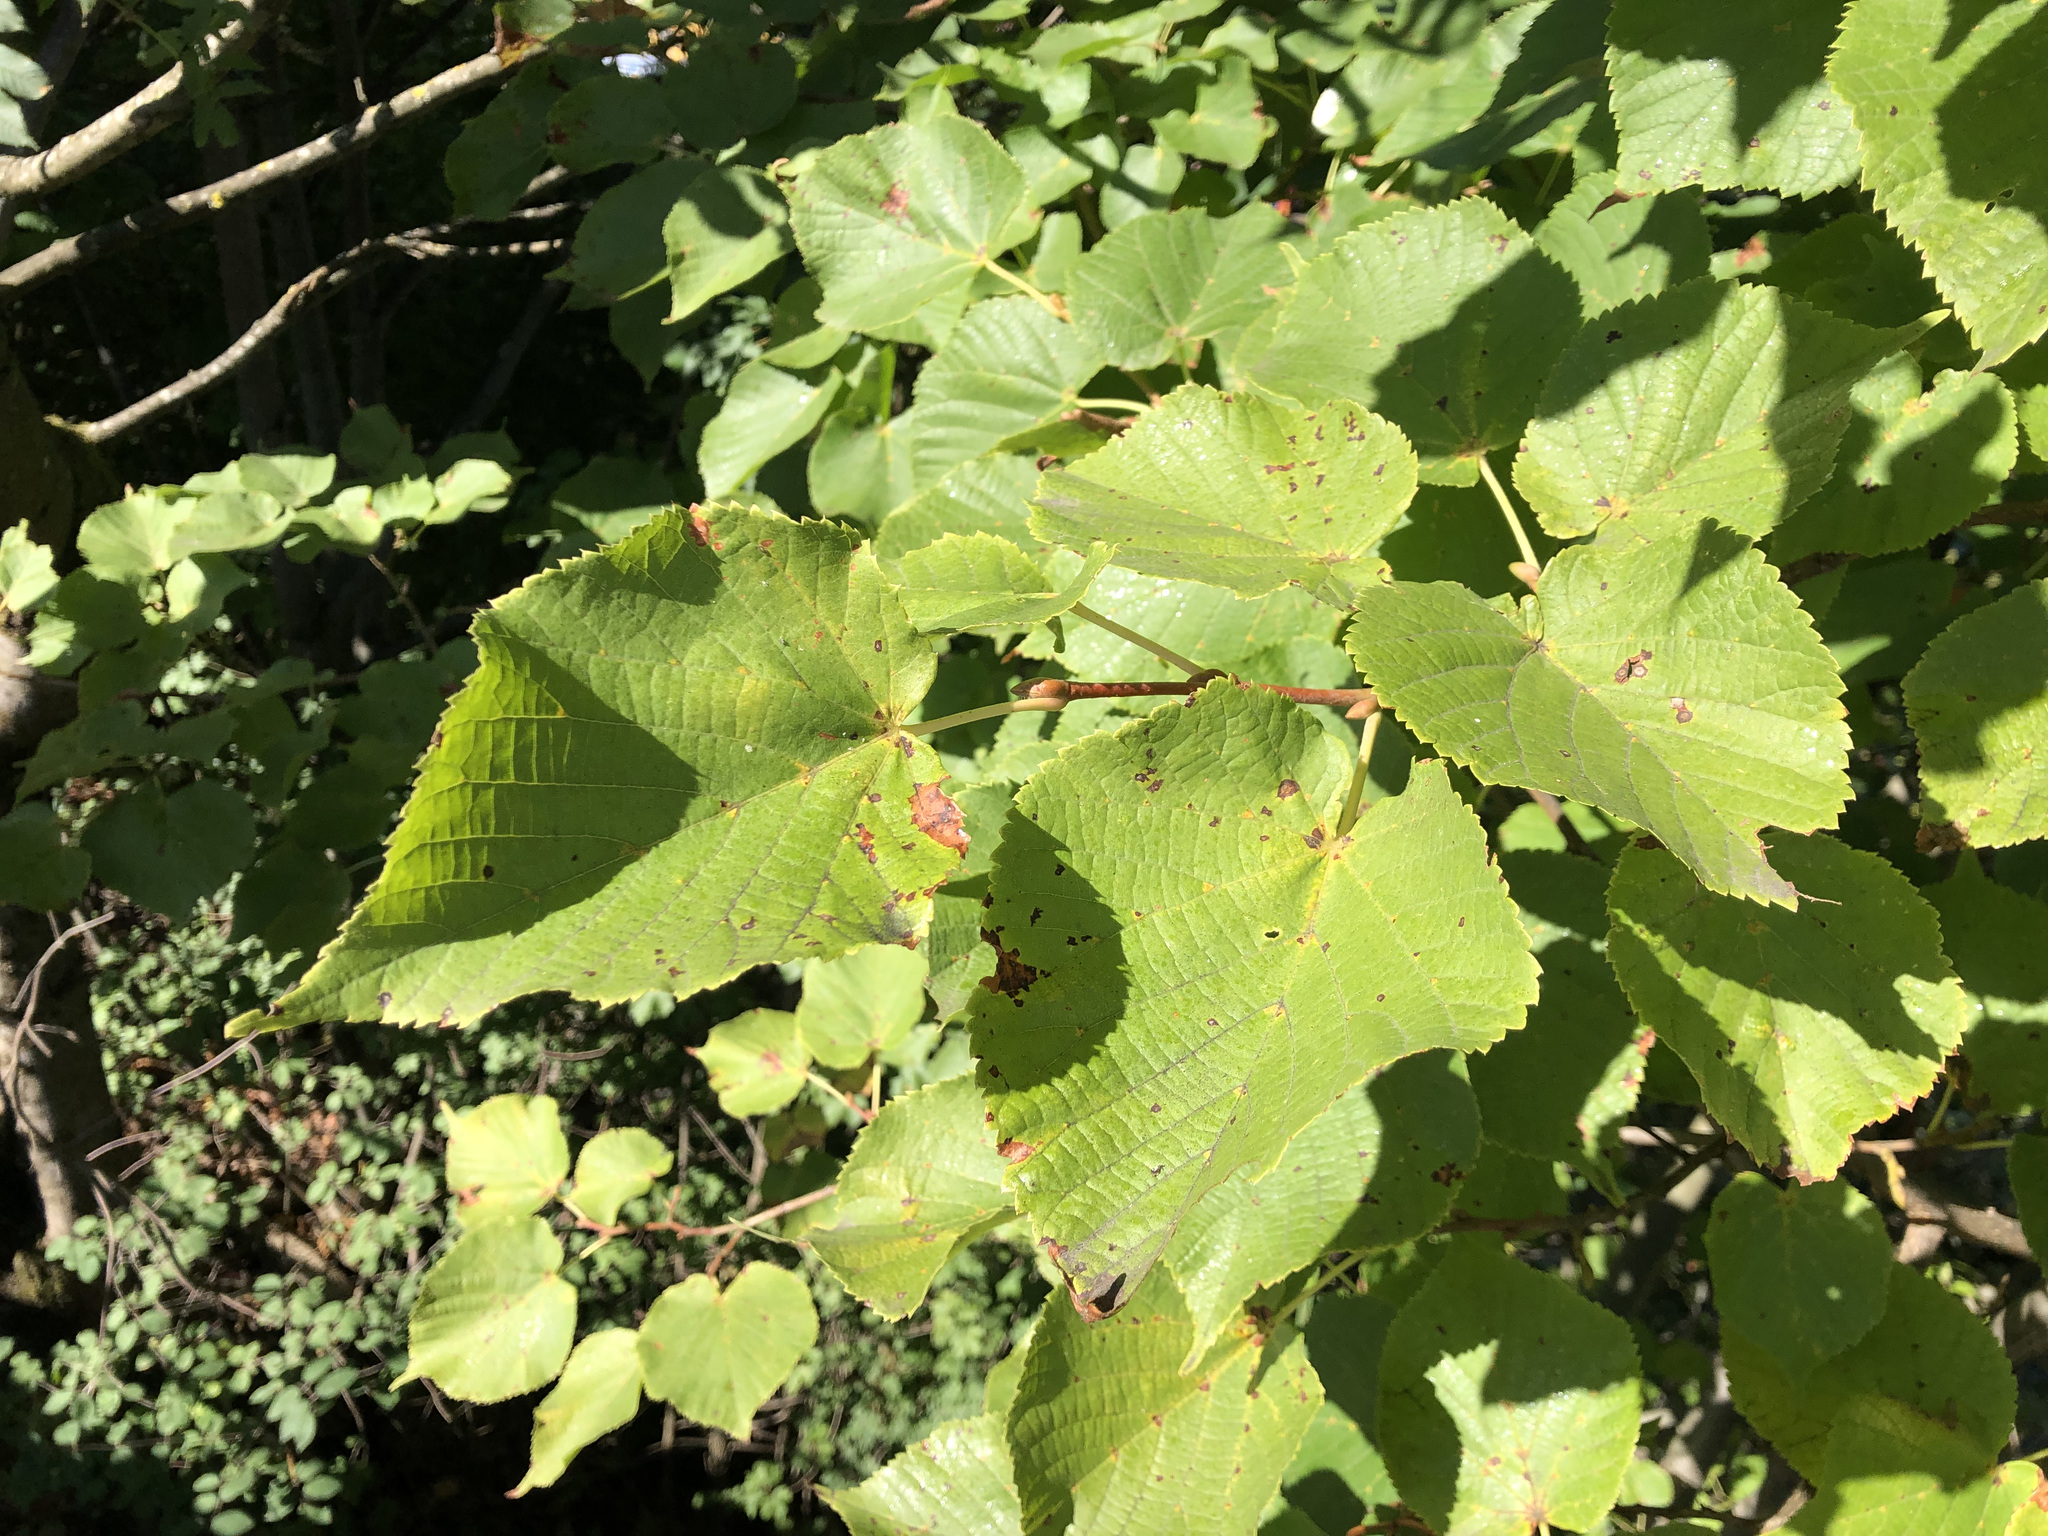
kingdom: Plantae
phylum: Tracheophyta
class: Magnoliopsida
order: Malvales
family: Malvaceae
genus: Tilia
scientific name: Tilia platyphyllos
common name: Large-leaved lime
